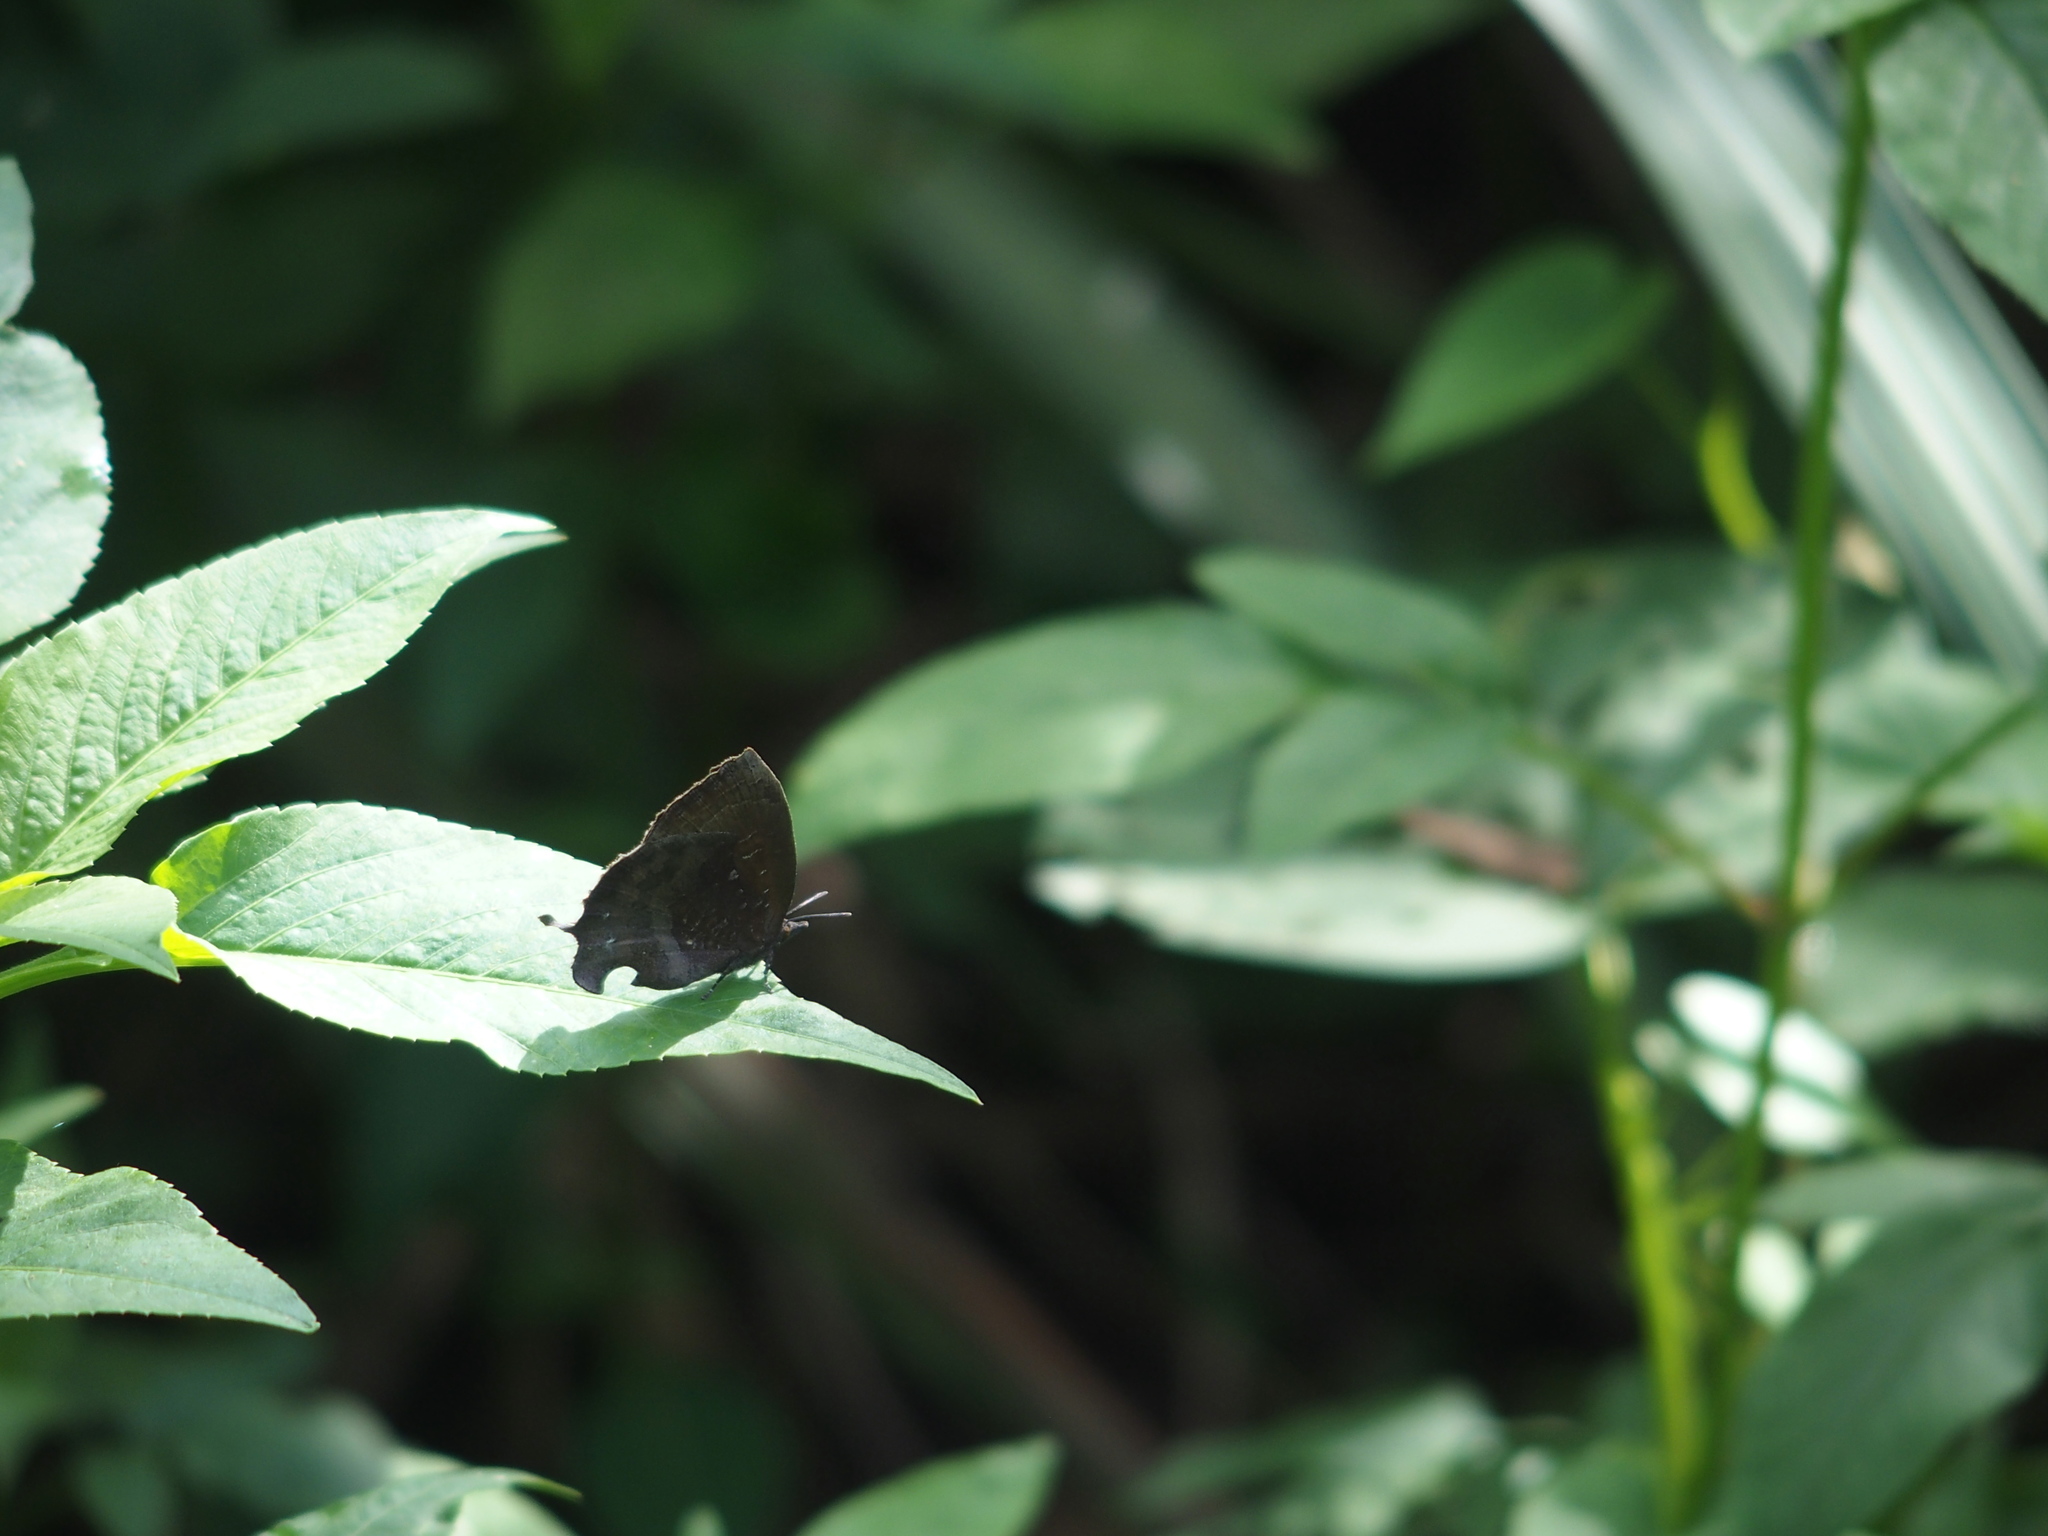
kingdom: Animalia
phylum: Arthropoda
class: Insecta
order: Lepidoptera
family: Lycaenidae
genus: Mahathala
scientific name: Mahathala ameria
